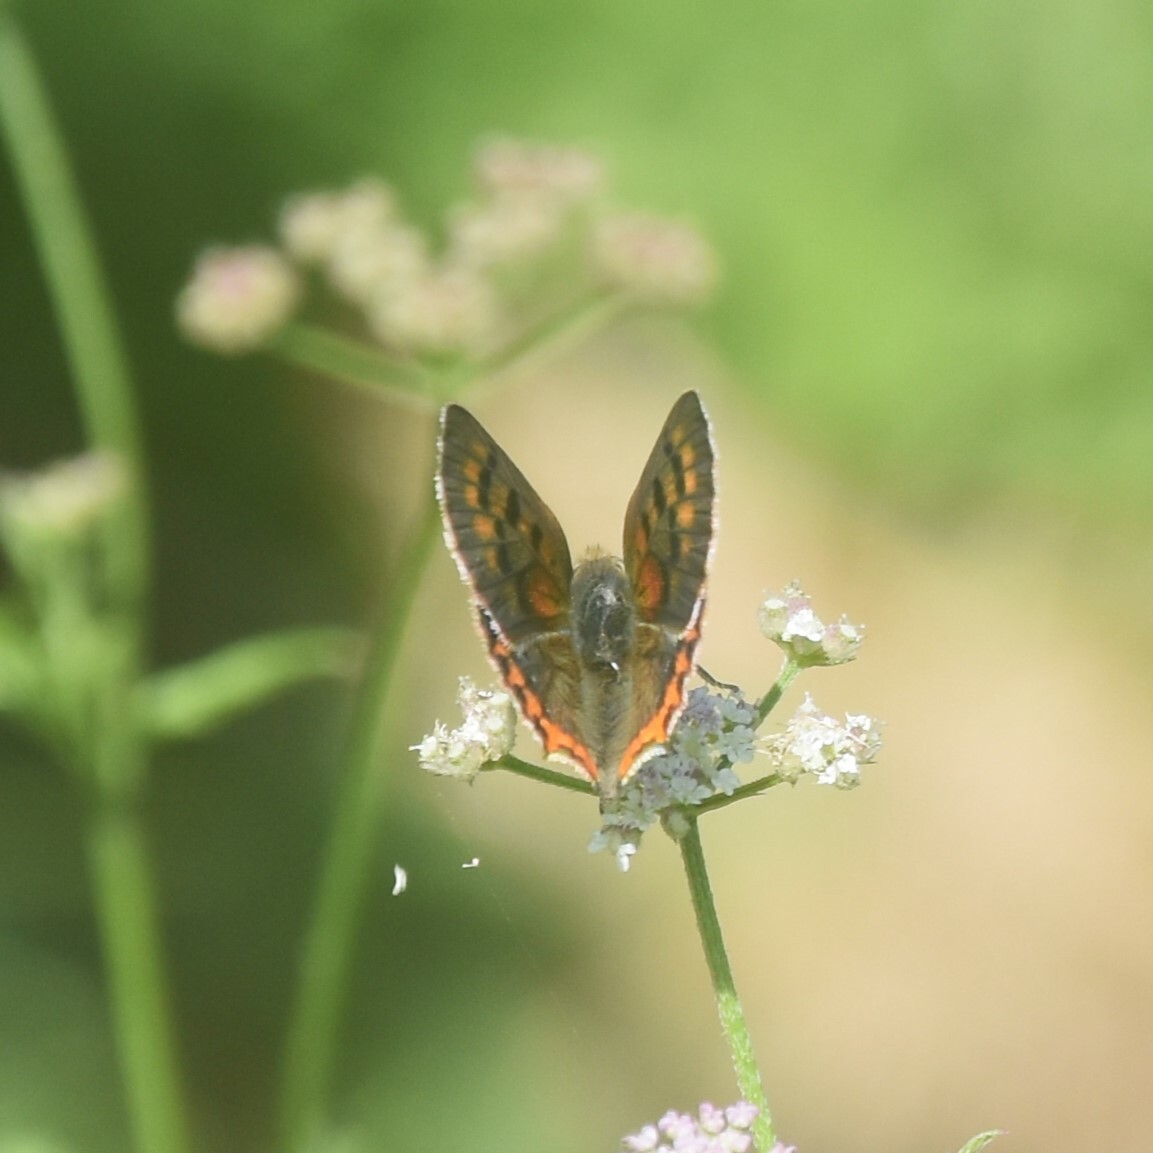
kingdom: Animalia
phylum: Arthropoda
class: Insecta
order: Lepidoptera
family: Lycaenidae
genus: Lycaena
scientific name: Lycaena phlaeas
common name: Small copper
